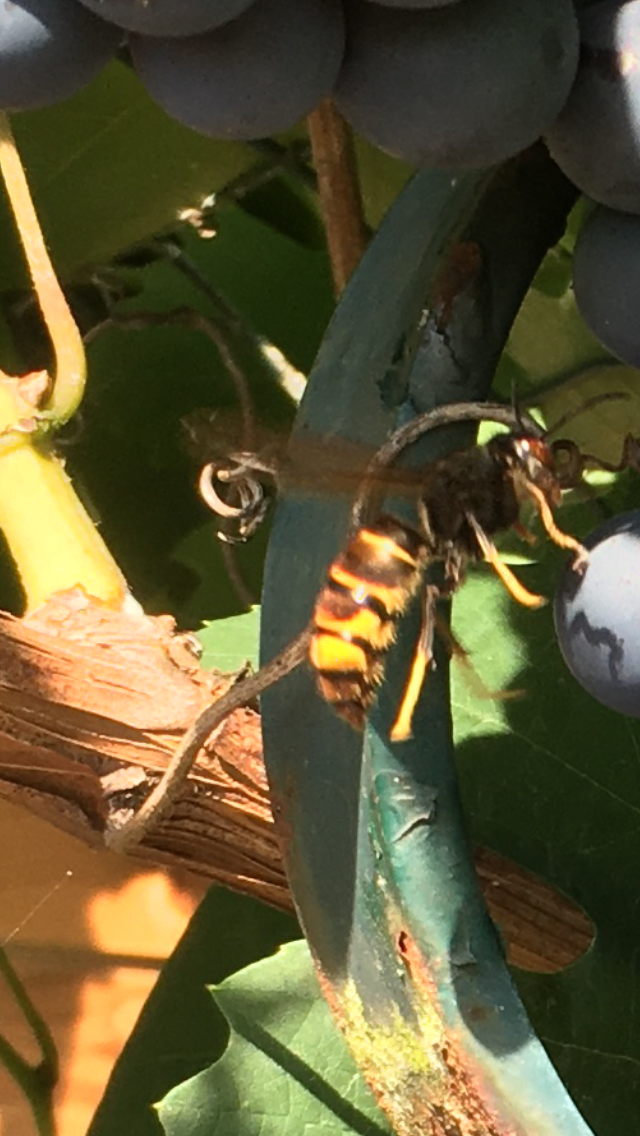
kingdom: Animalia
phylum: Arthropoda
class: Insecta
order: Hymenoptera
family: Vespidae
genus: Vespa
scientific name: Vespa velutina
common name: Asian hornet
